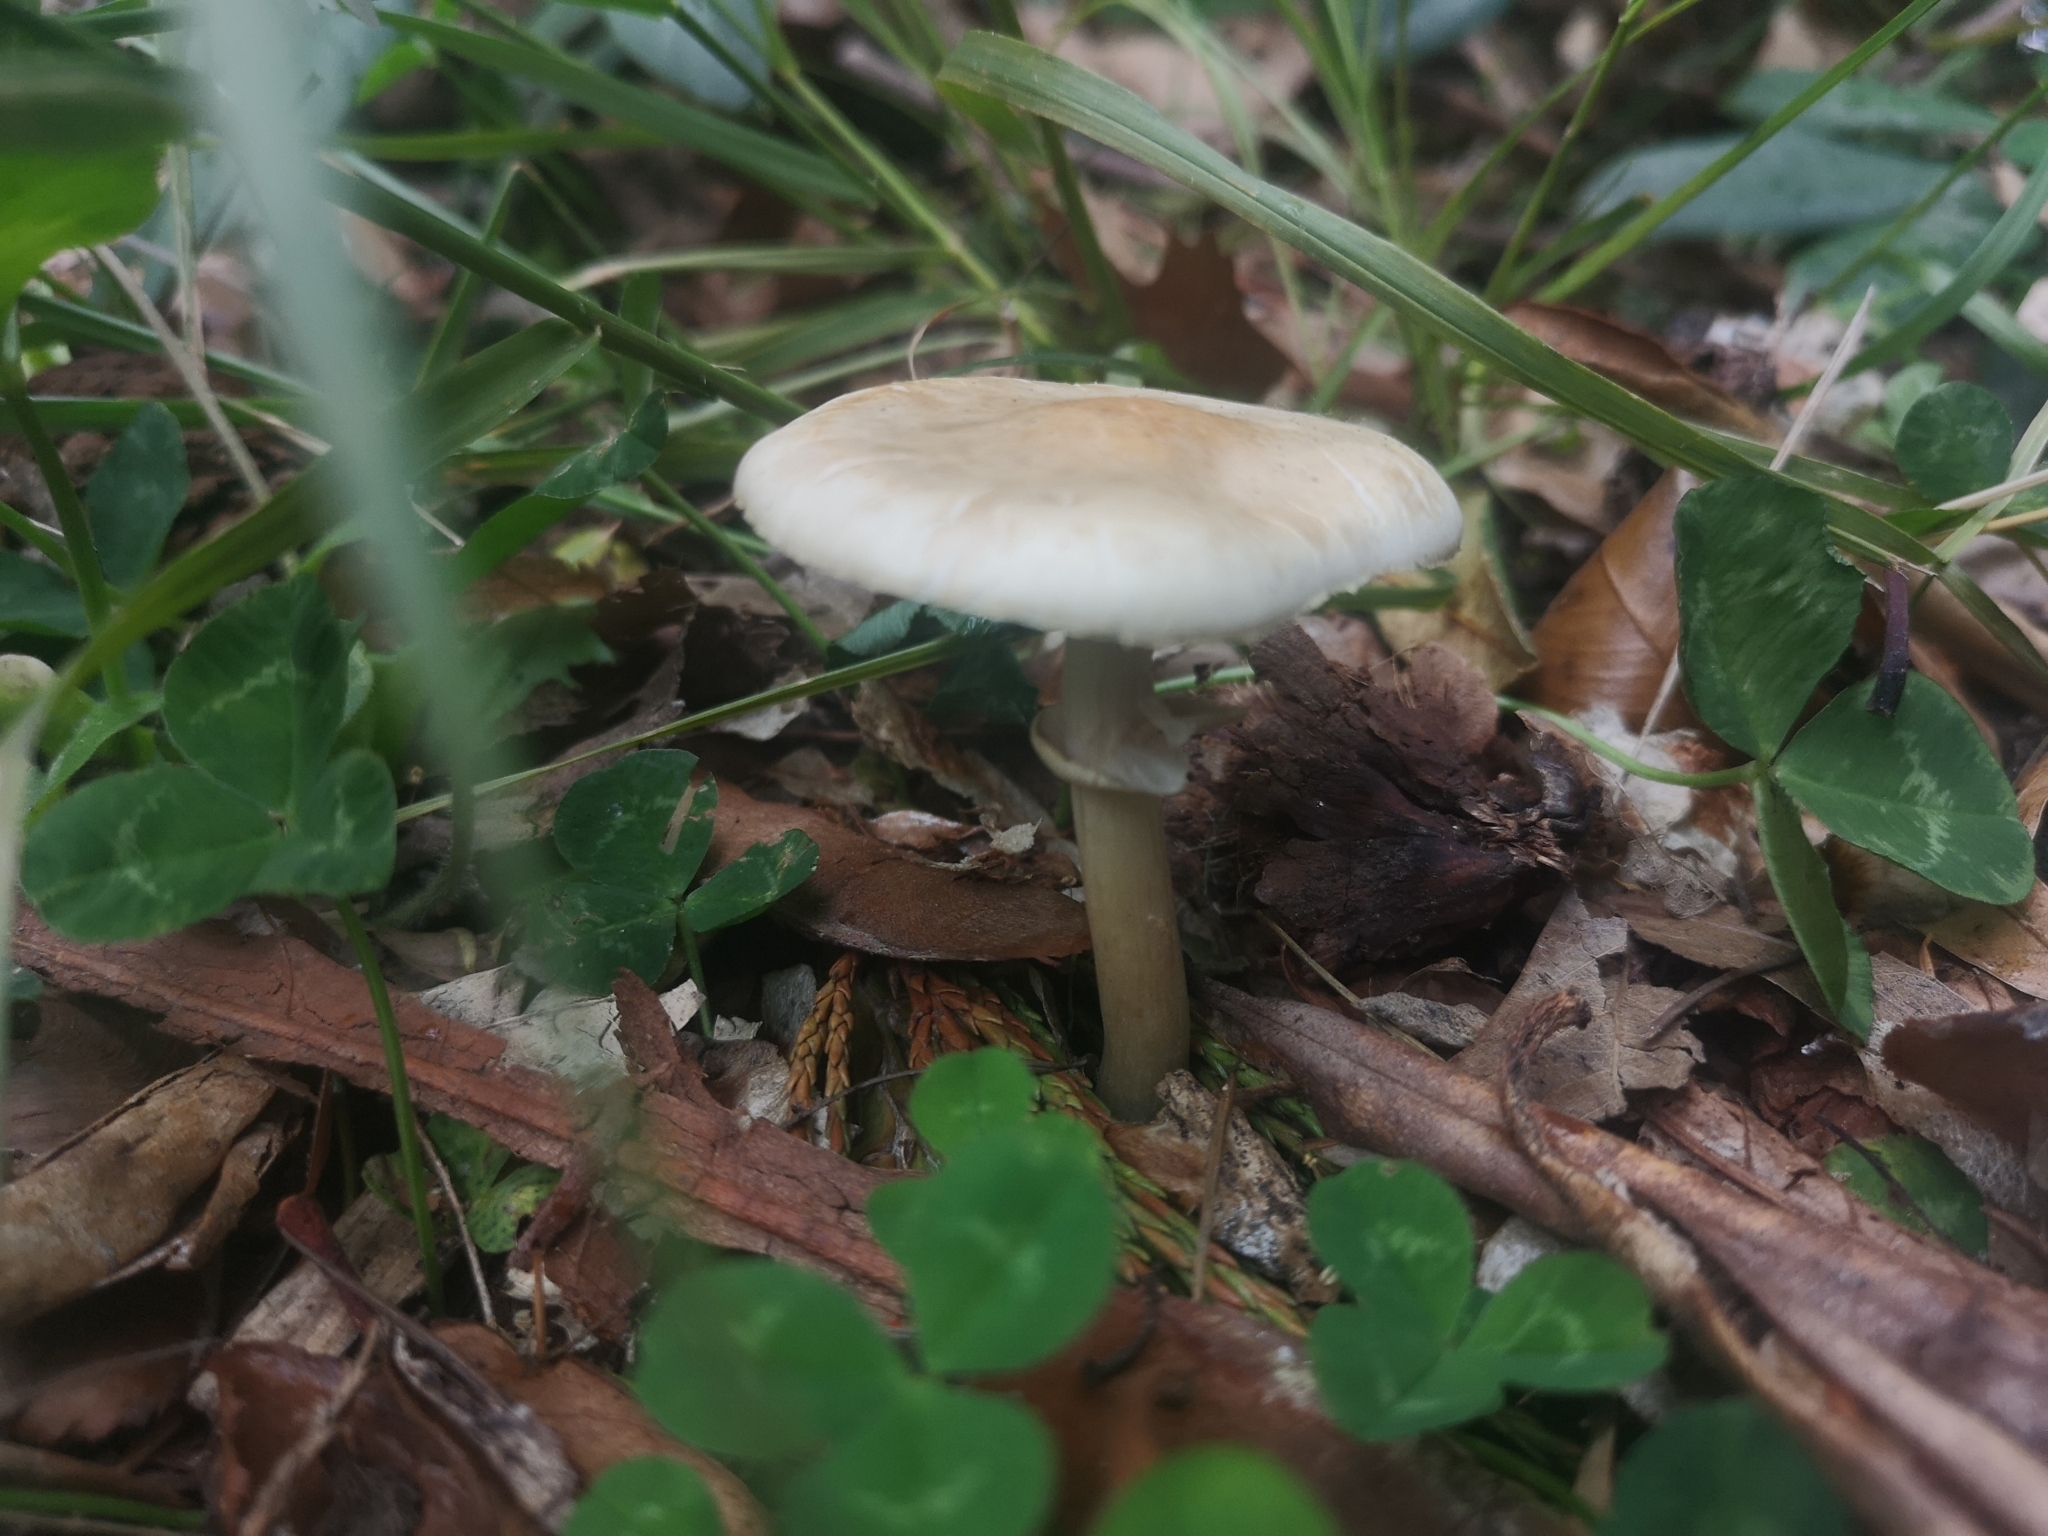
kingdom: Fungi
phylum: Basidiomycota
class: Agaricomycetes
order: Agaricales
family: Strophariaceae
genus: Agrocybe
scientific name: Agrocybe praecox
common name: Spring fieldcap
